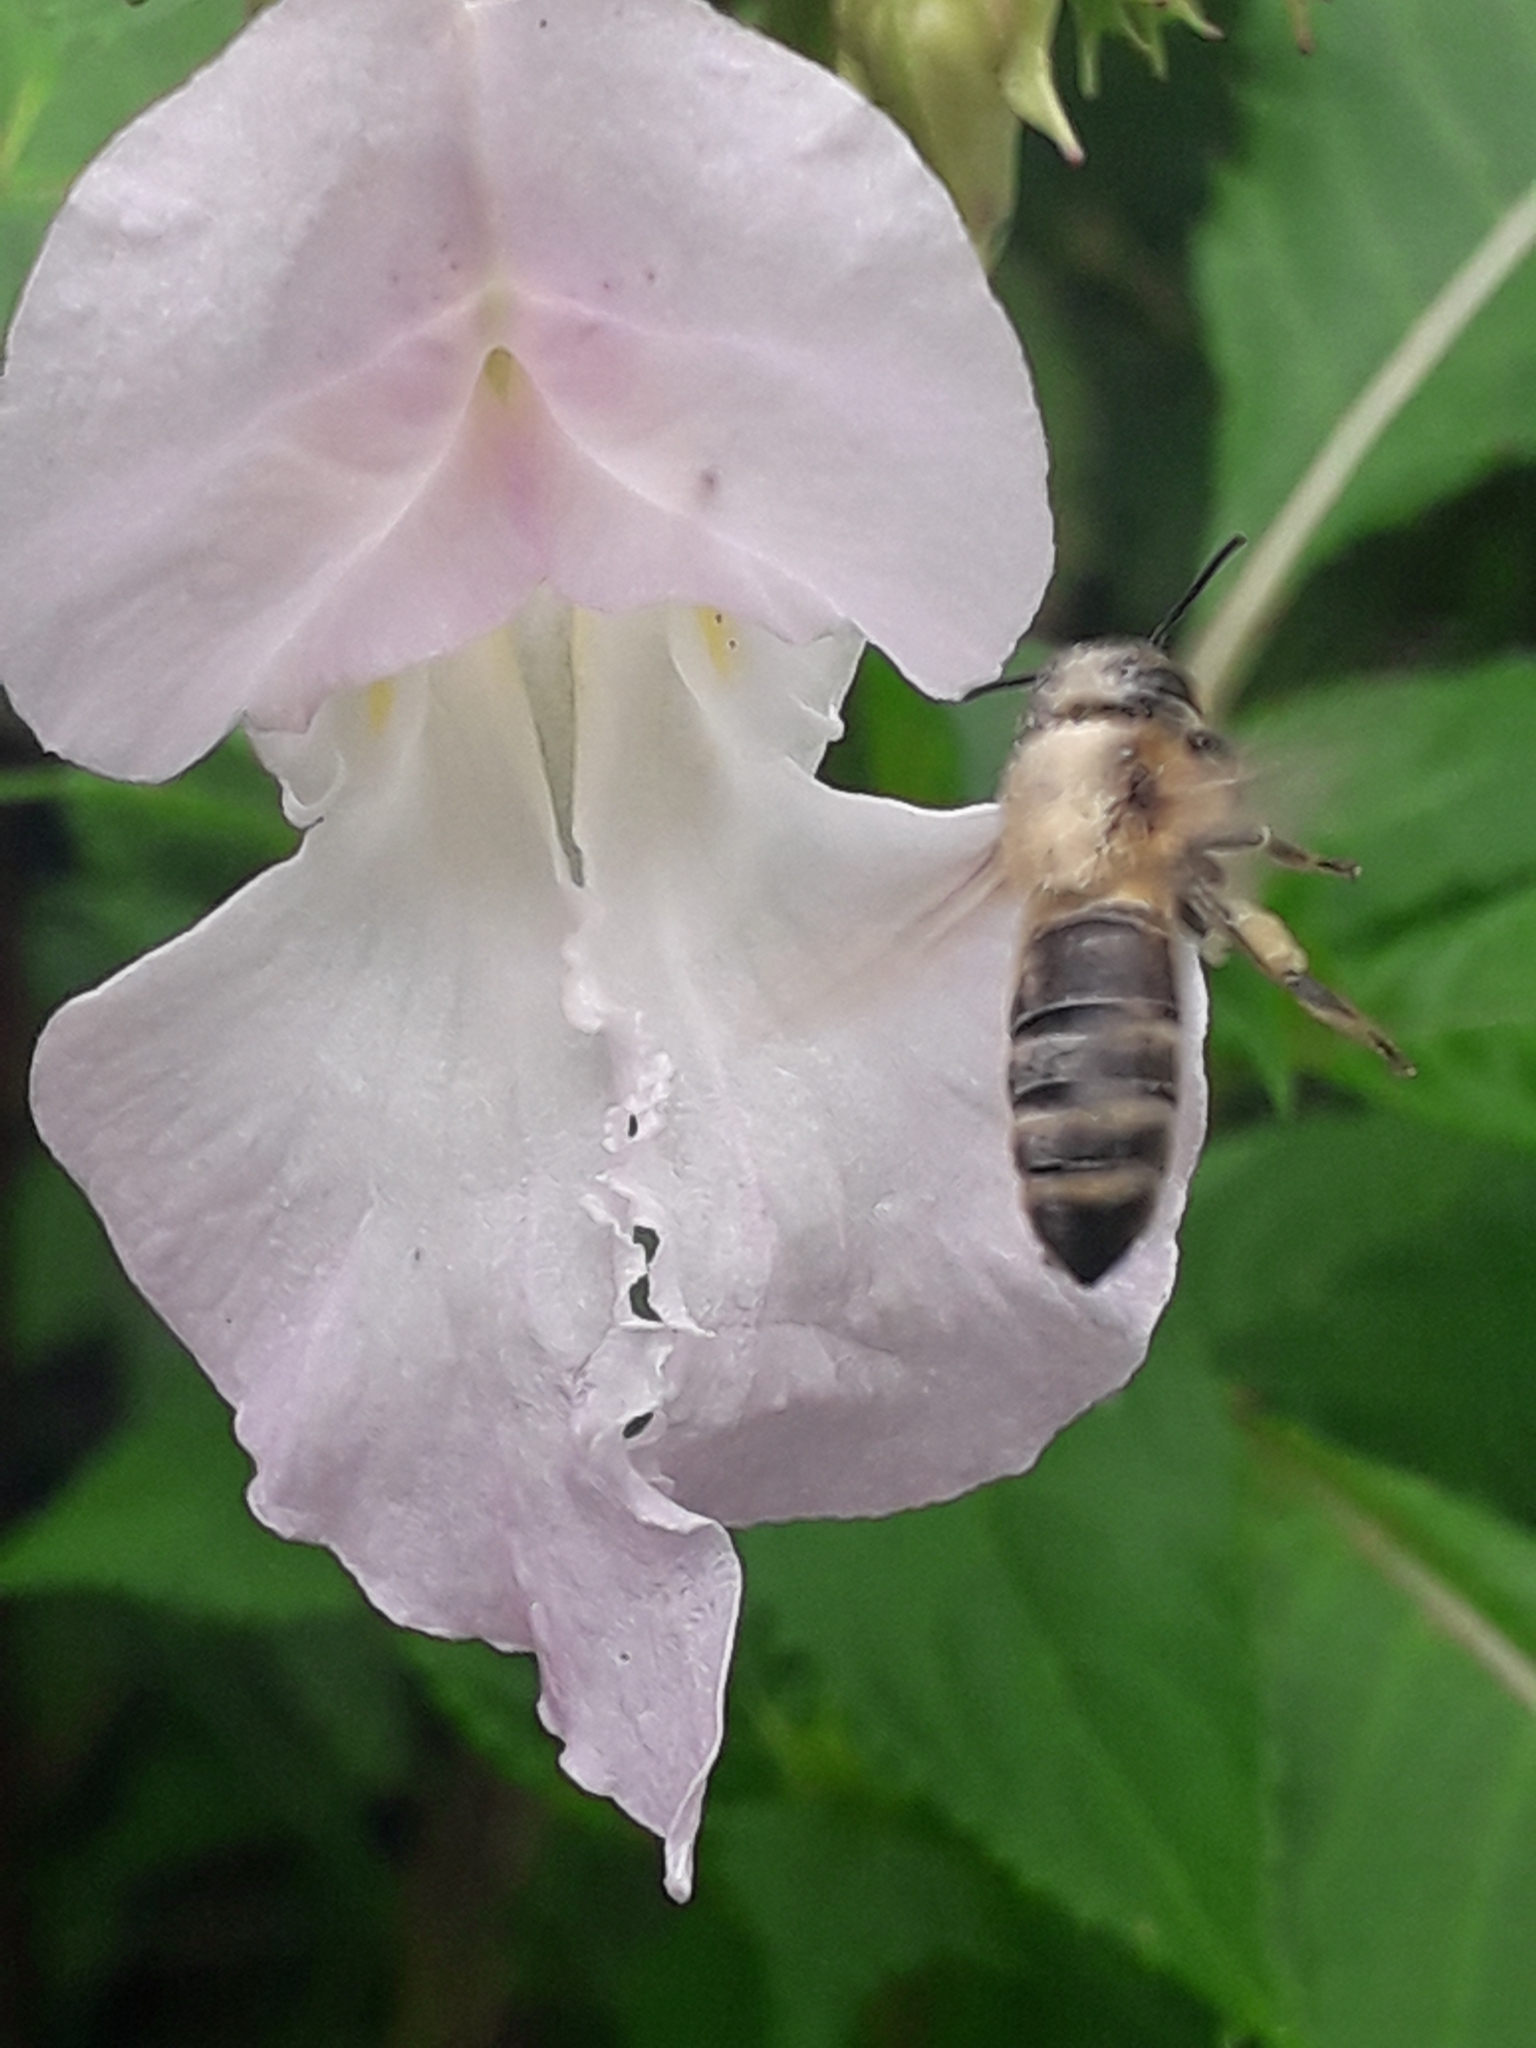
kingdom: Animalia
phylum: Arthropoda
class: Insecta
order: Hymenoptera
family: Apidae
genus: Apis
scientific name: Apis mellifera
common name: Honey bee
